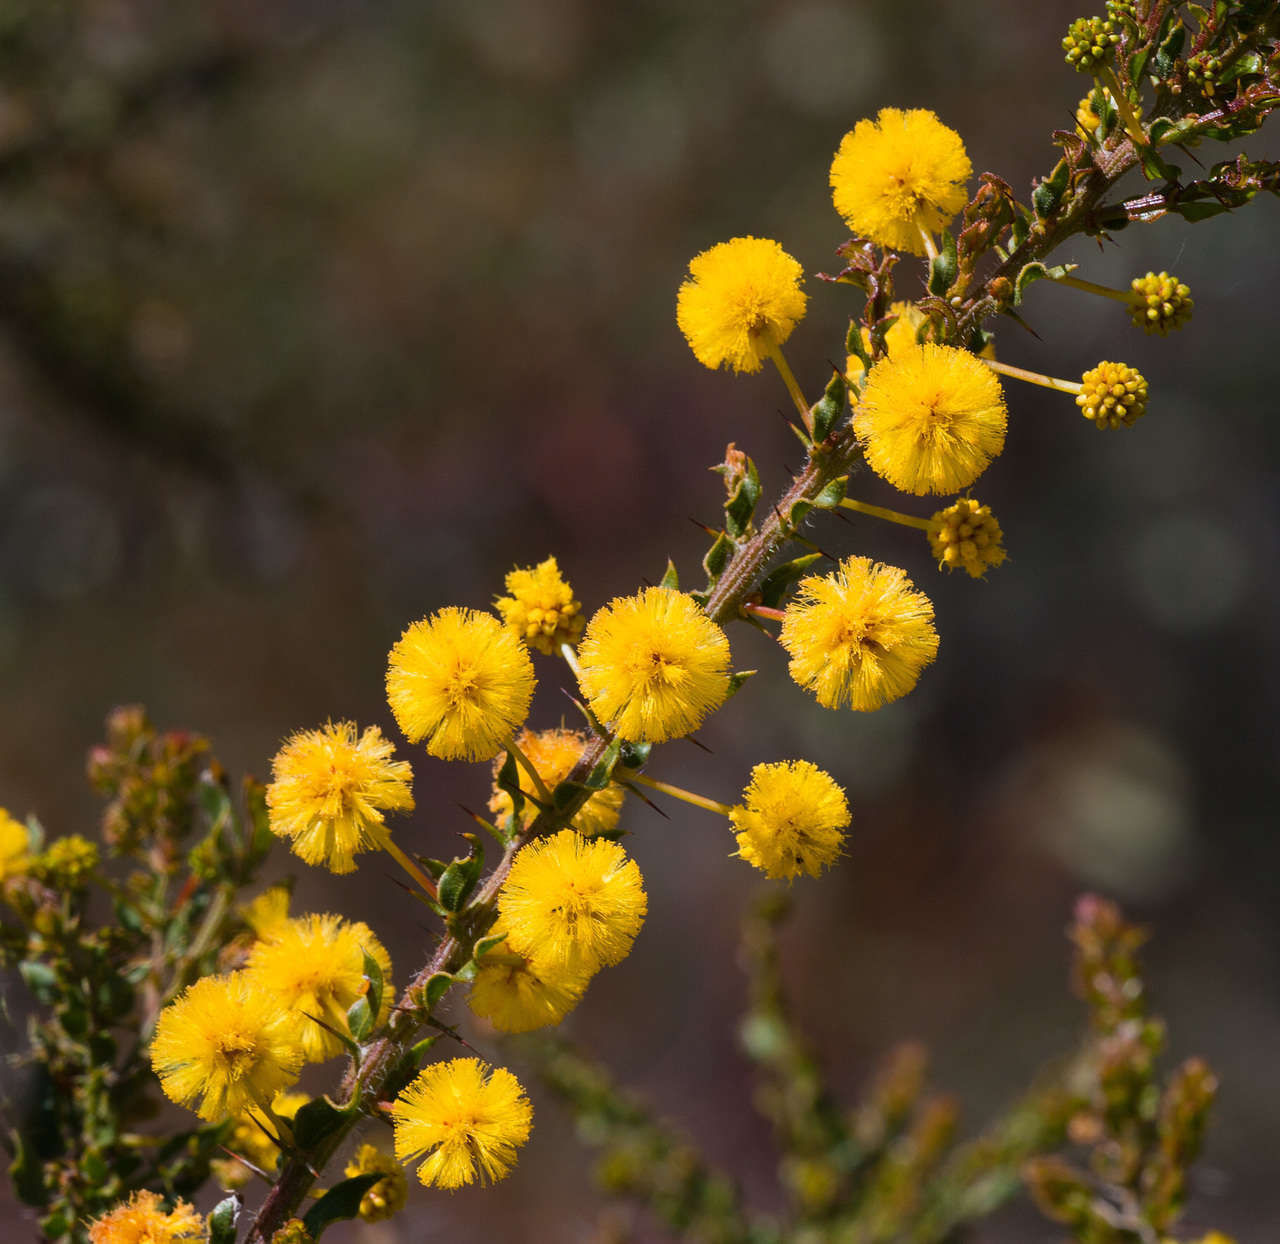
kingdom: Plantae
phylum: Tracheophyta
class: Magnoliopsida
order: Fabales
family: Fabaceae
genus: Acacia
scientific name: Acacia paradoxa
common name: Paradox acacia
